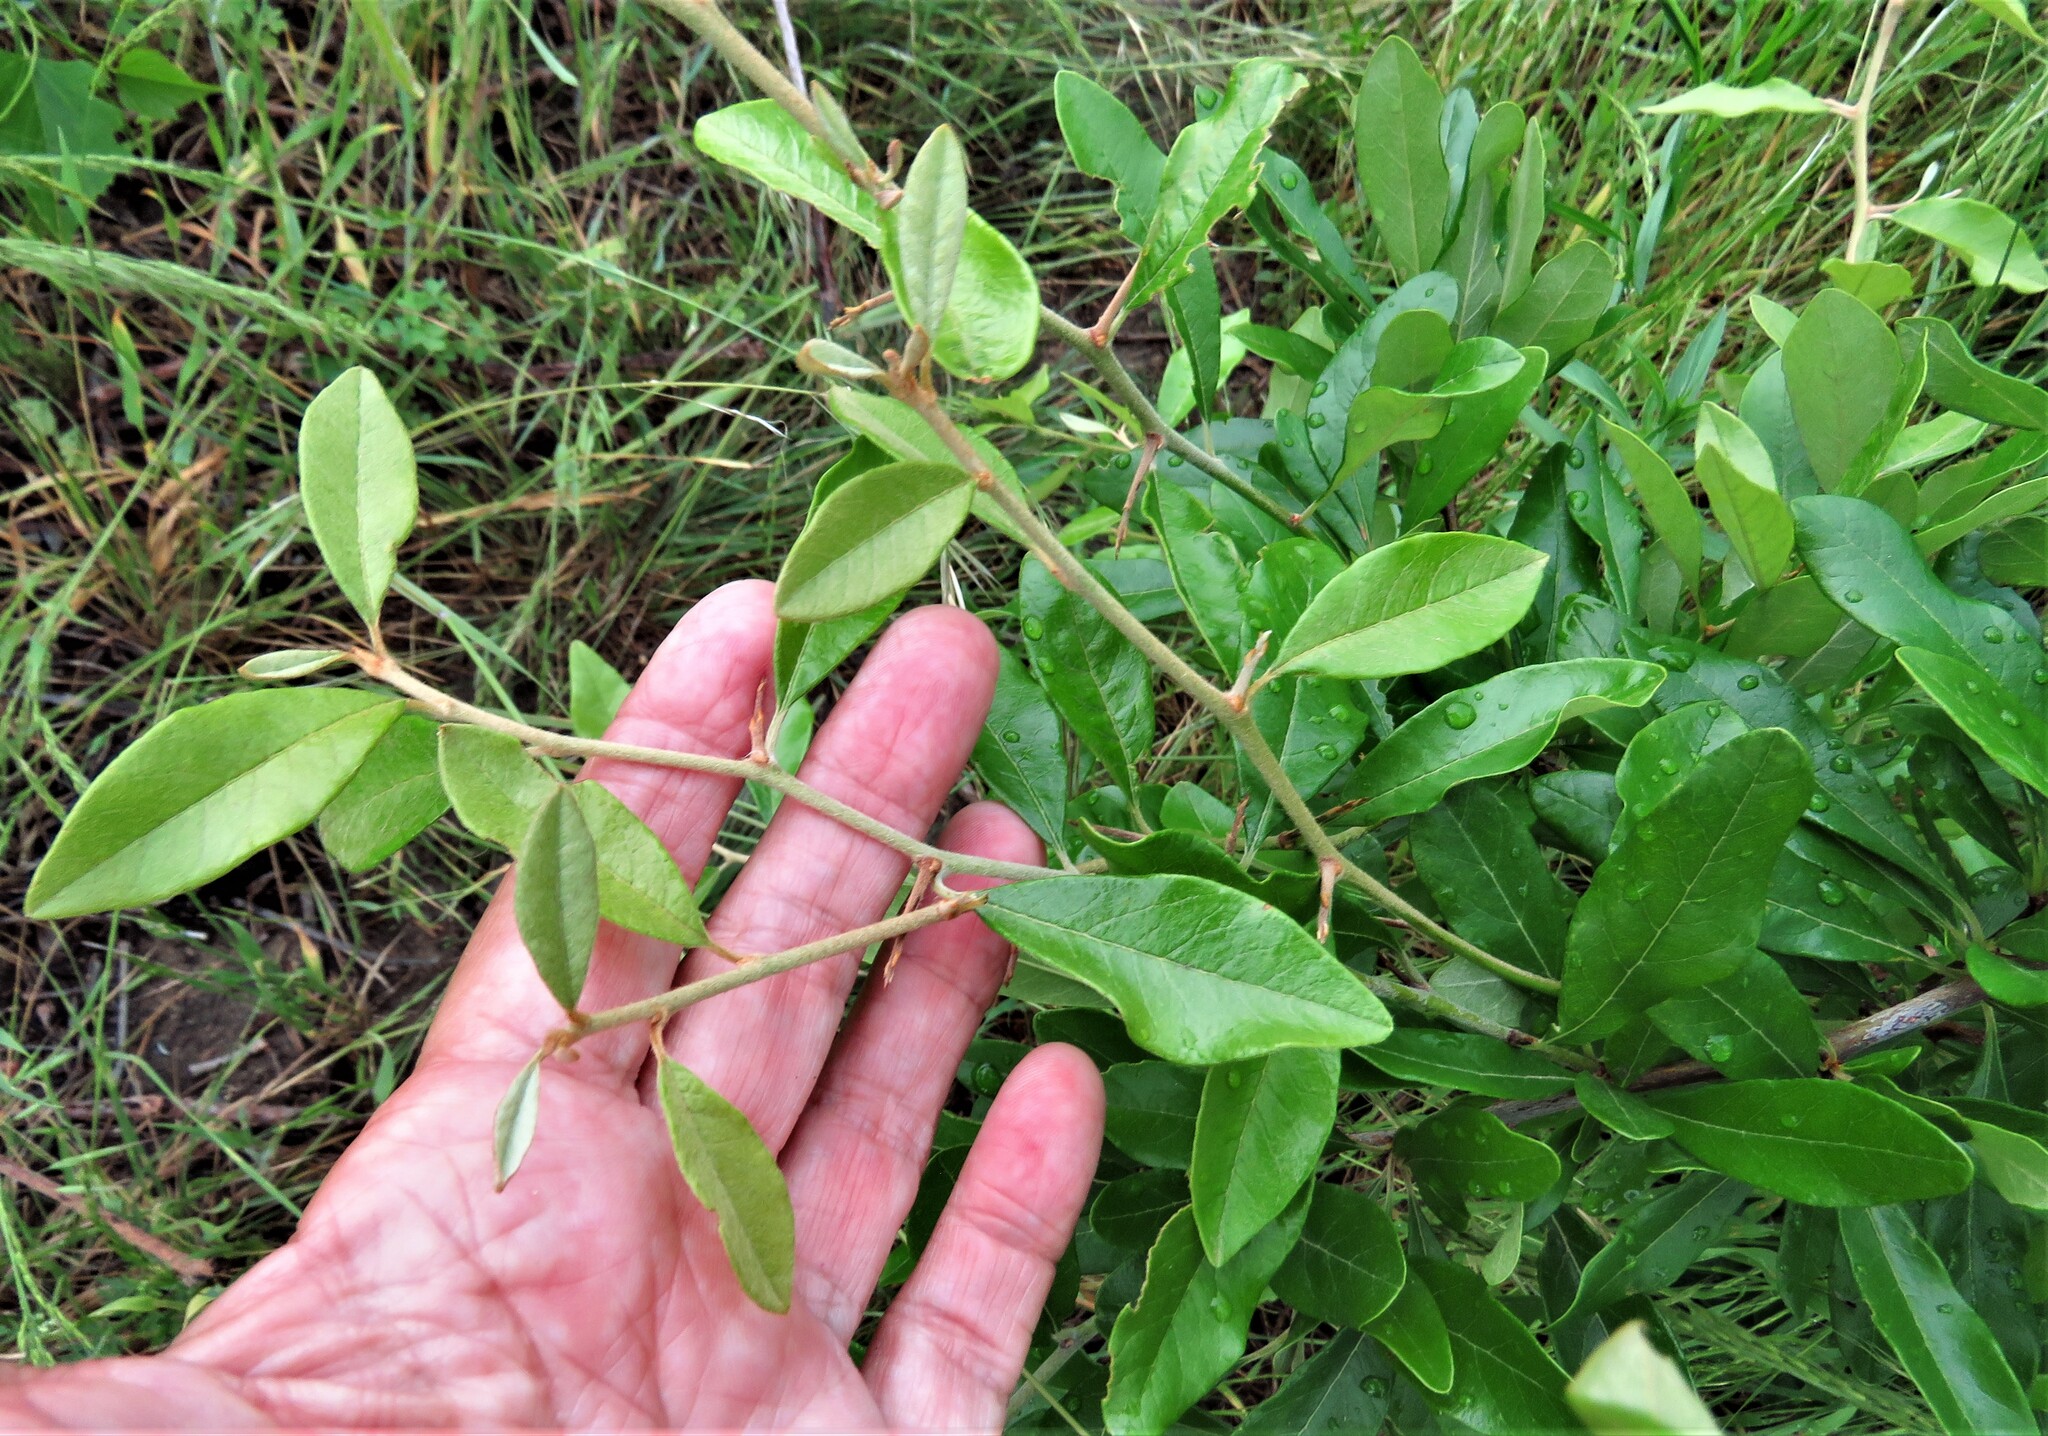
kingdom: Plantae
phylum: Tracheophyta
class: Magnoliopsida
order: Ericales
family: Sapotaceae
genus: Sideroxylon
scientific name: Sideroxylon lanuginosum
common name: Chittamwood
